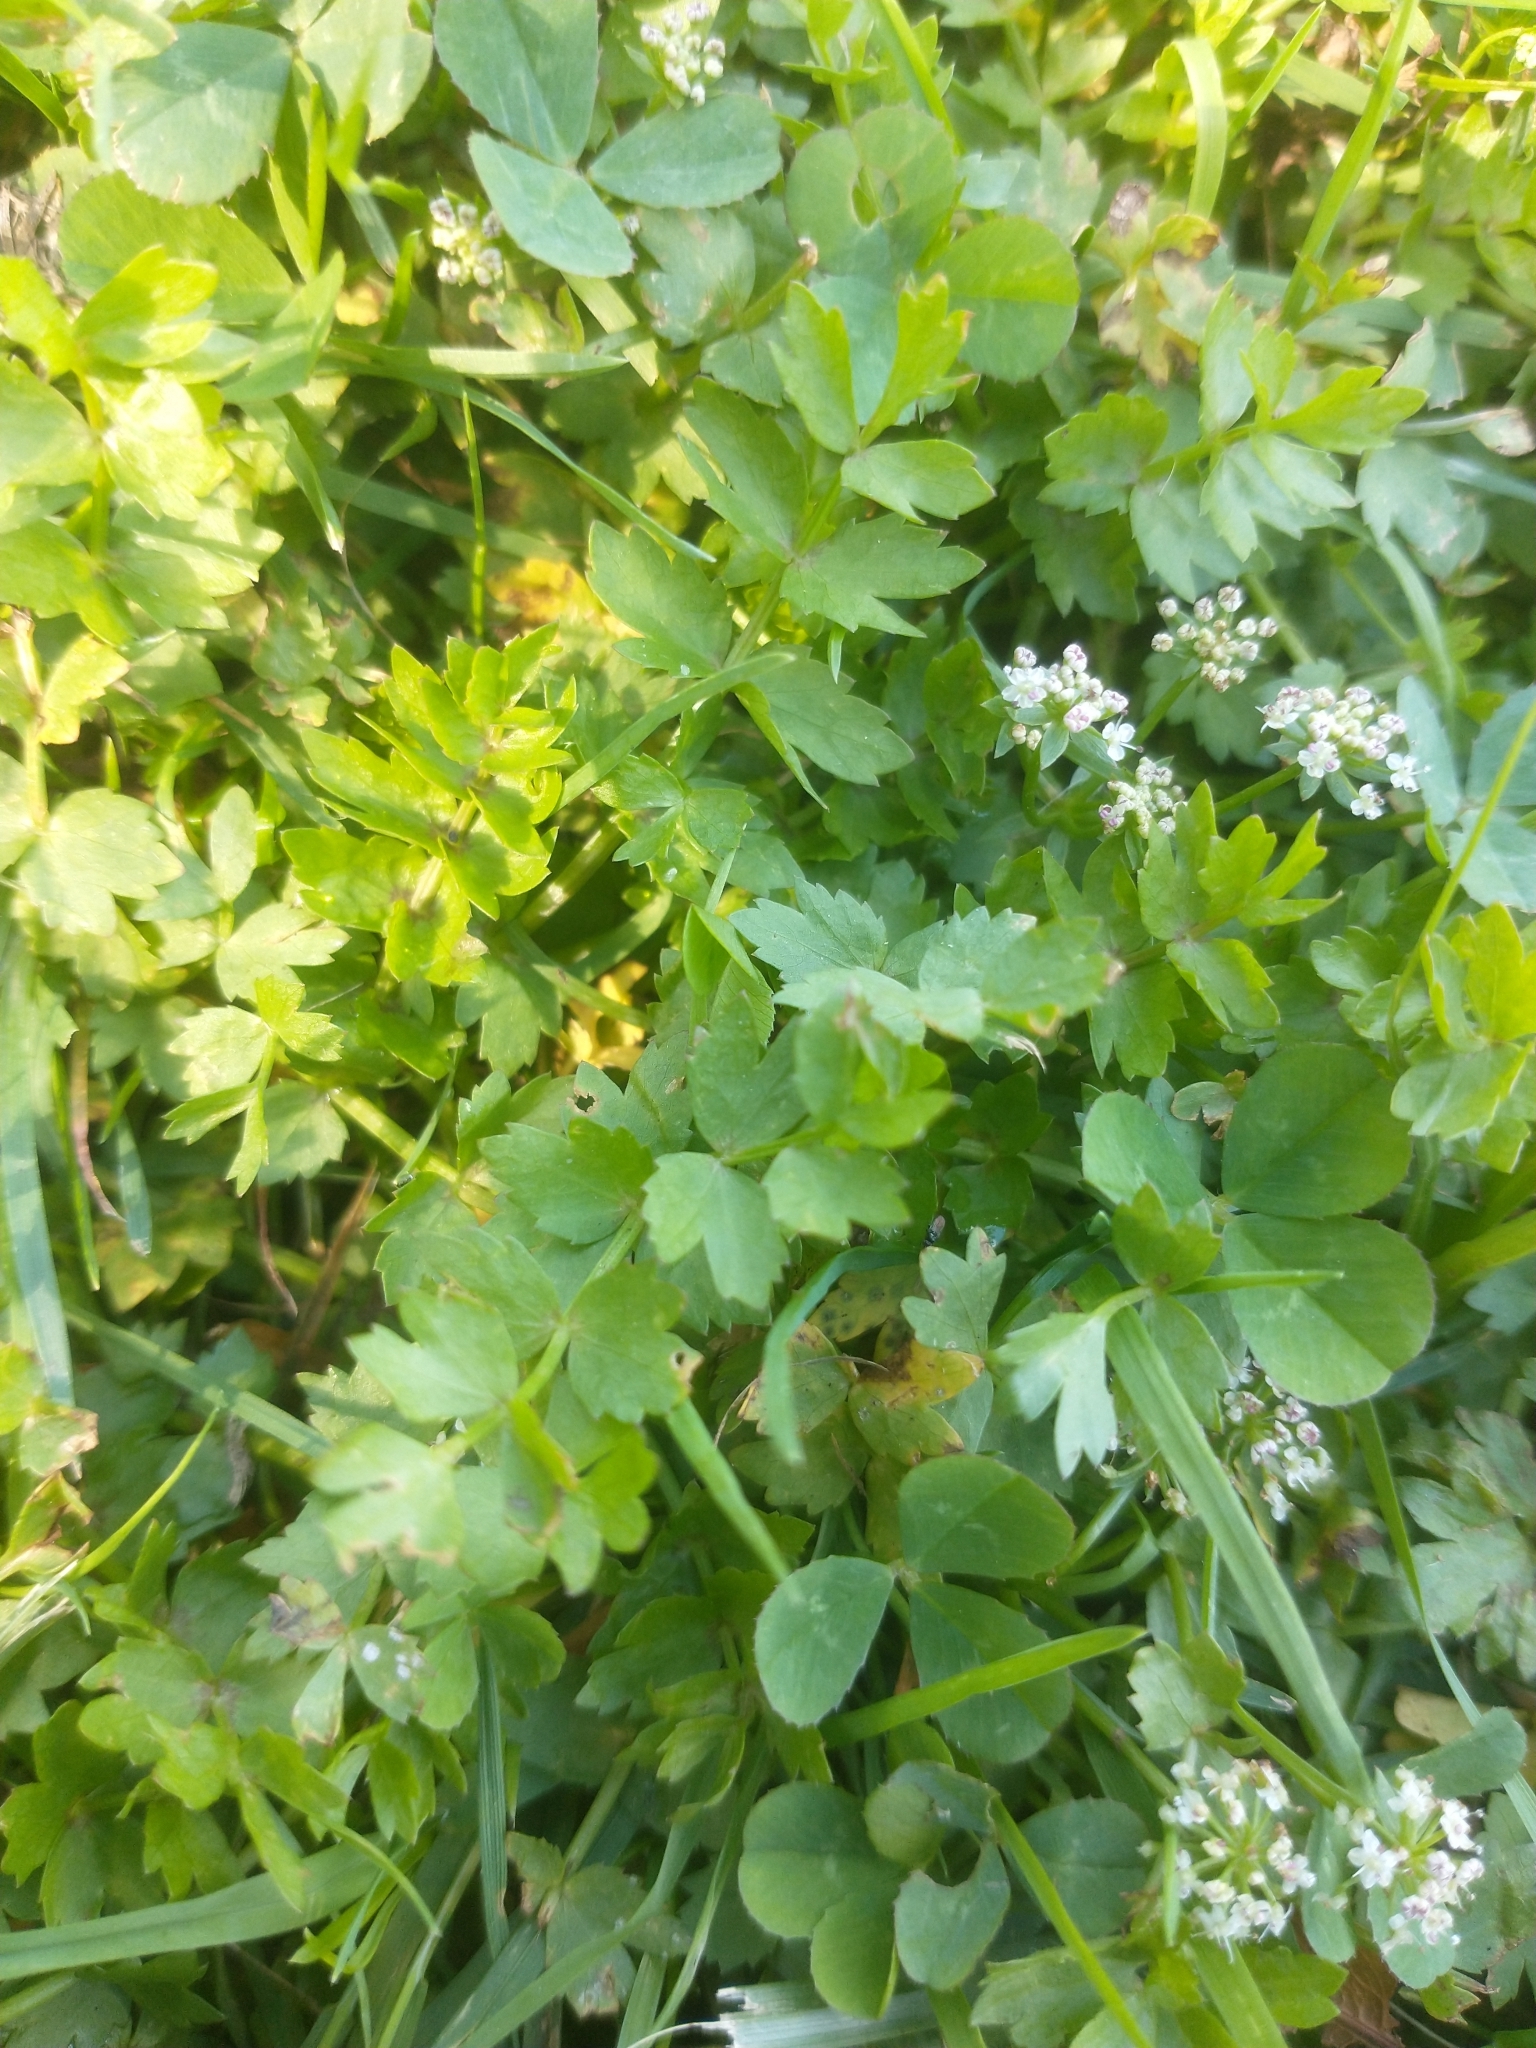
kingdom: Plantae
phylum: Tracheophyta
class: Magnoliopsida
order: Apiales
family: Apiaceae
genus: Helosciadium
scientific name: Helosciadium repens
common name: Creeping marshwort
